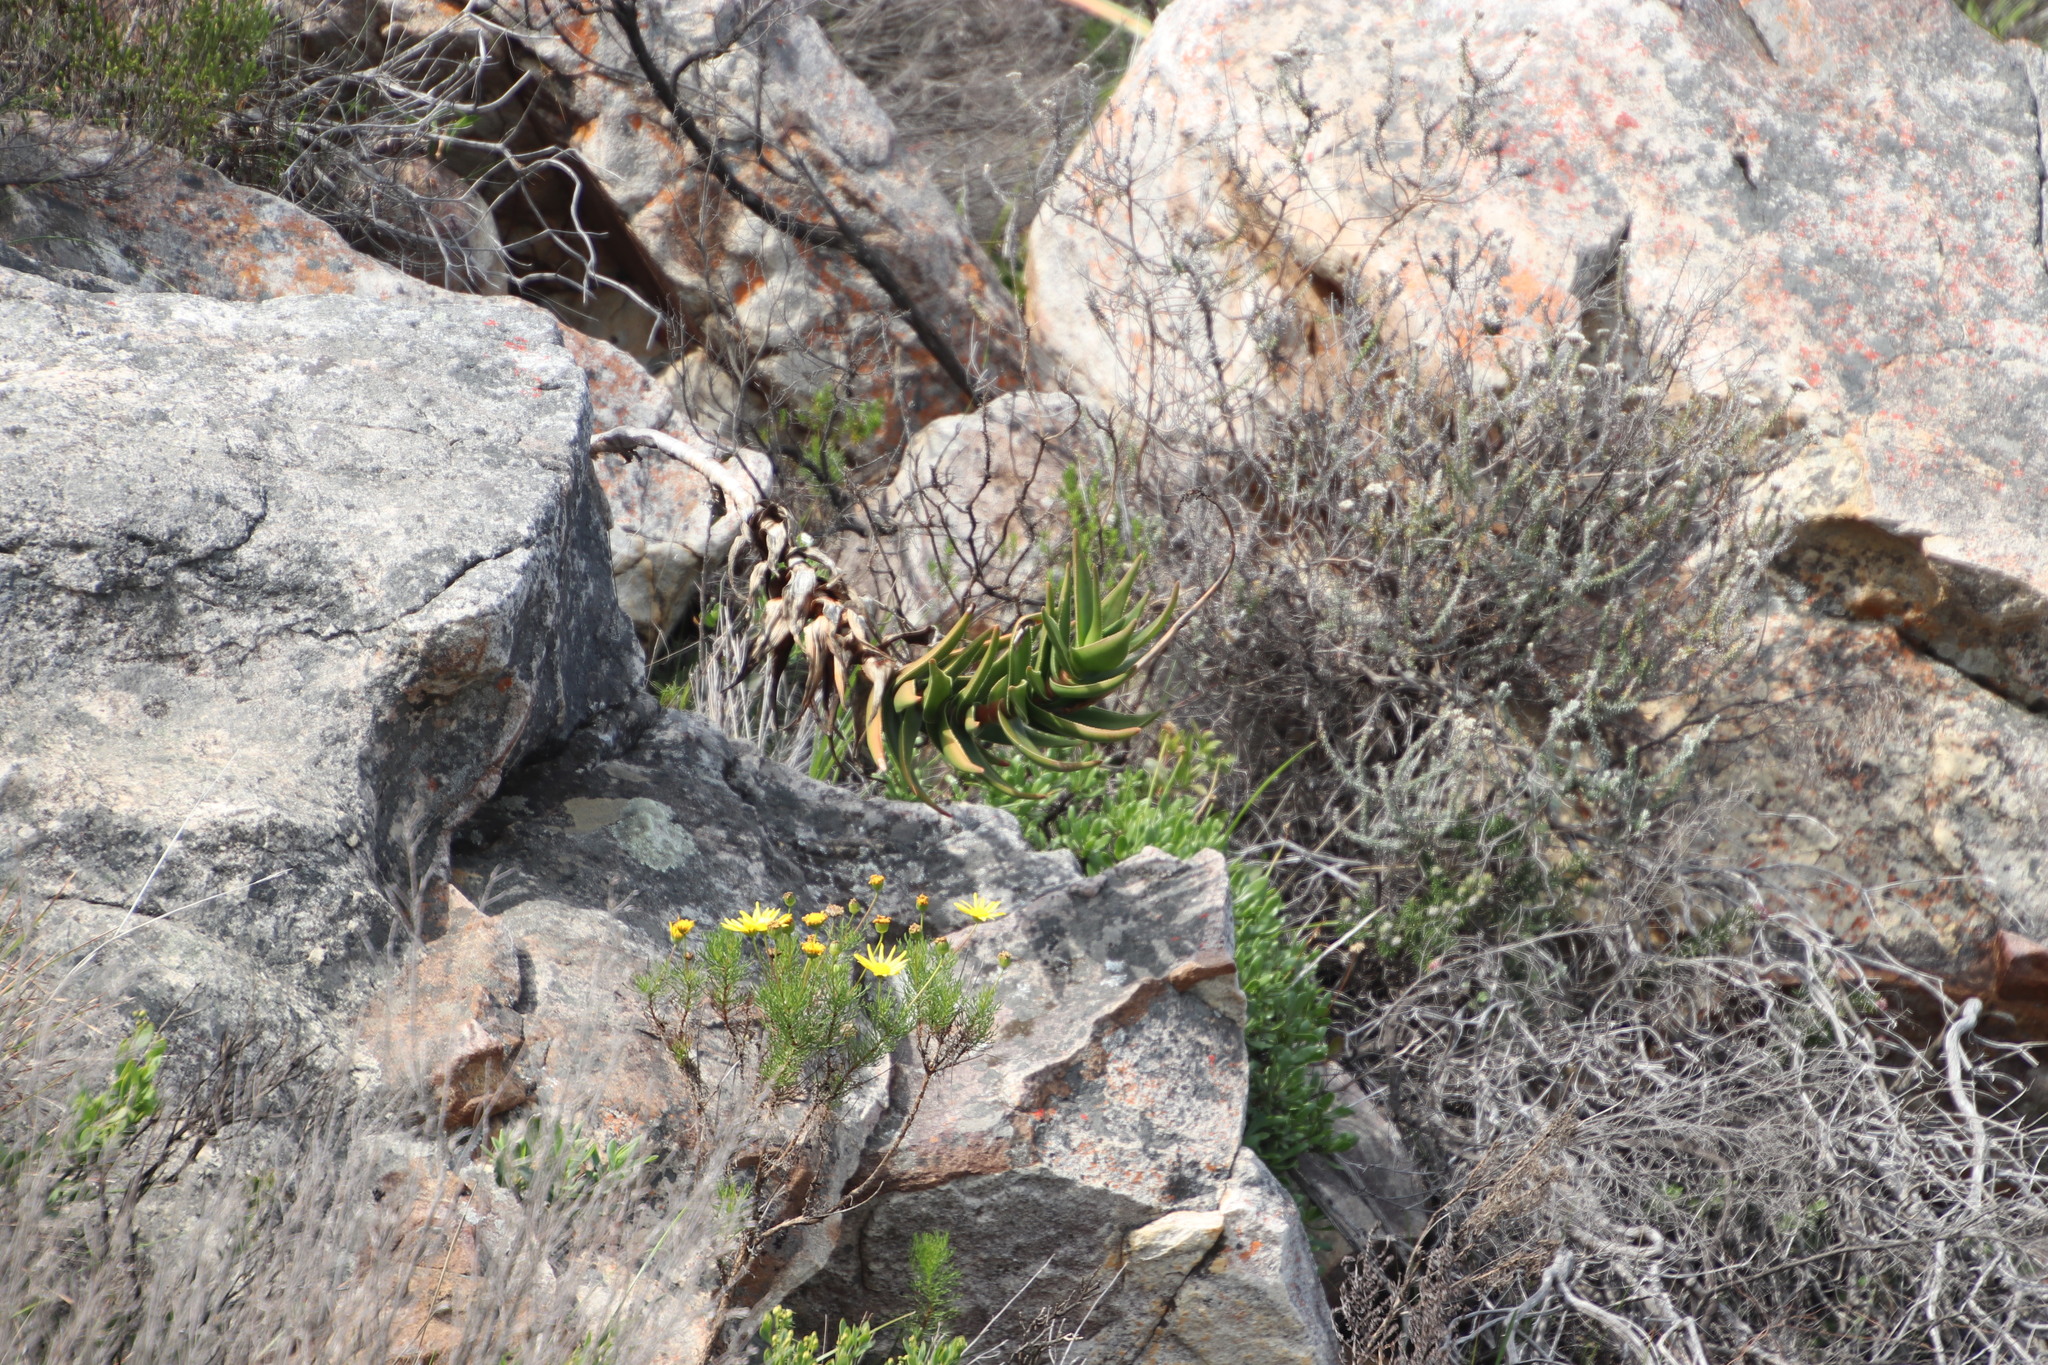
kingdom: Plantae
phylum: Tracheophyta
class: Liliopsida
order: Asparagales
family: Asphodelaceae
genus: Aloiampelos
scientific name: Aloiampelos commixta
